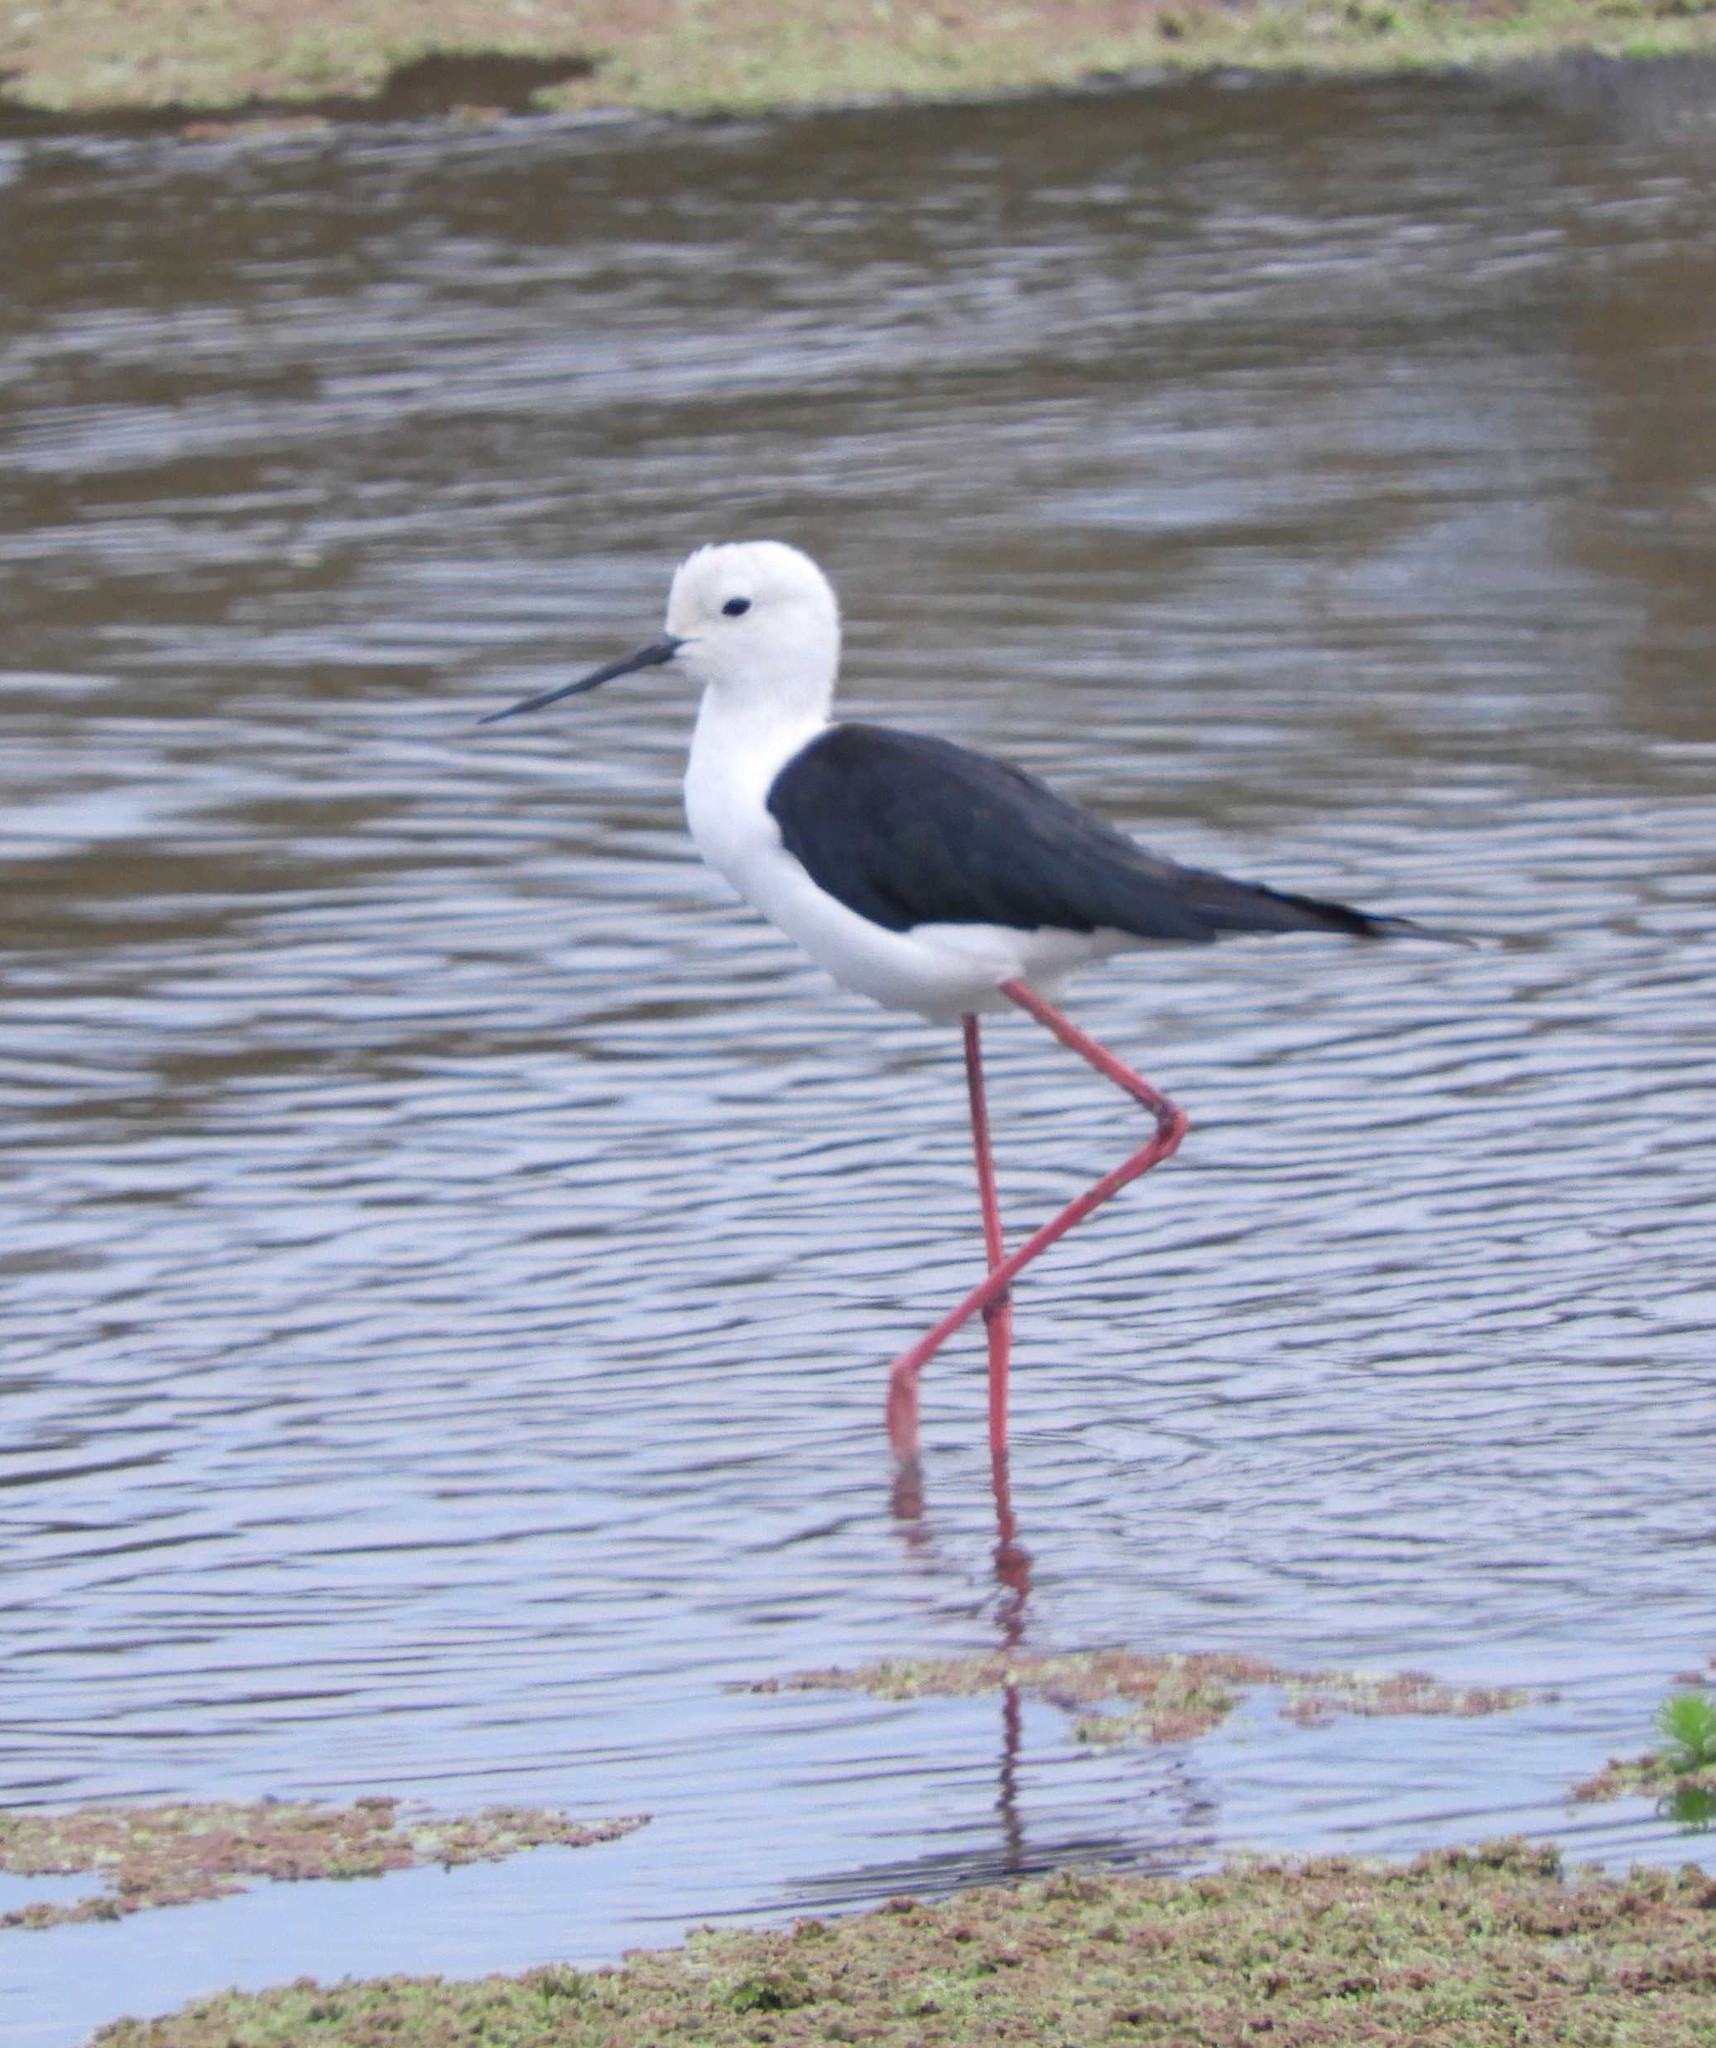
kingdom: Animalia
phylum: Chordata
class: Aves
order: Charadriiformes
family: Recurvirostridae
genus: Himantopus
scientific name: Himantopus himantopus
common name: Black-winged stilt
